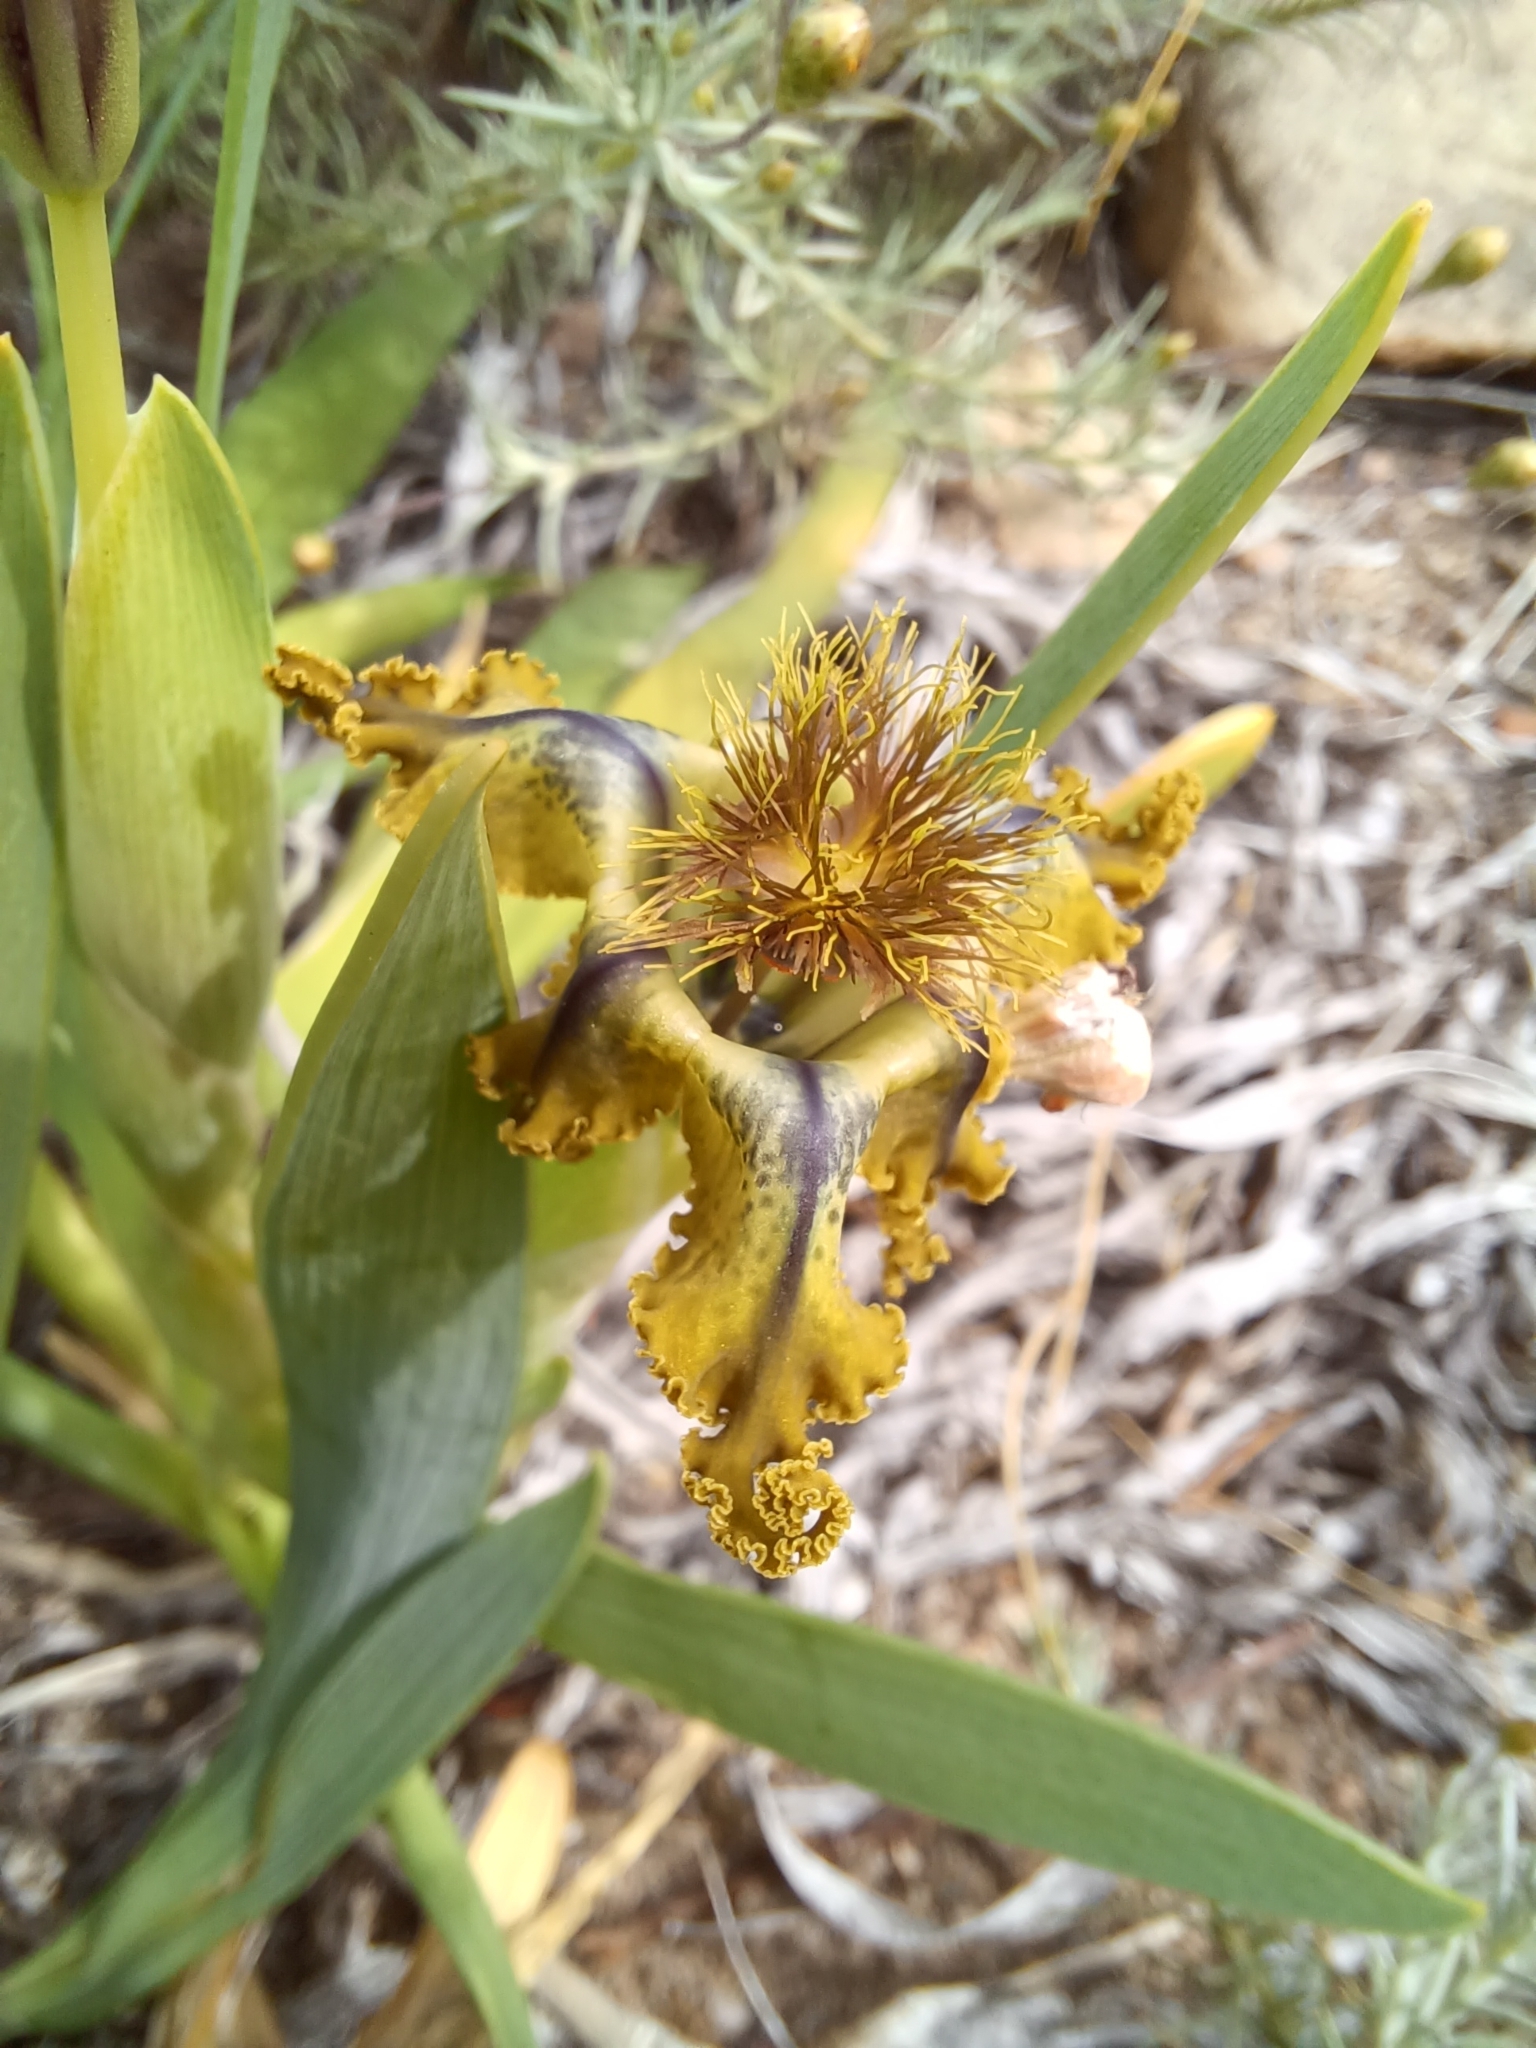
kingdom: Plantae
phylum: Tracheophyta
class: Liliopsida
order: Asparagales
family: Iridaceae
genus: Ferraria
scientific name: Ferraria variabilis
